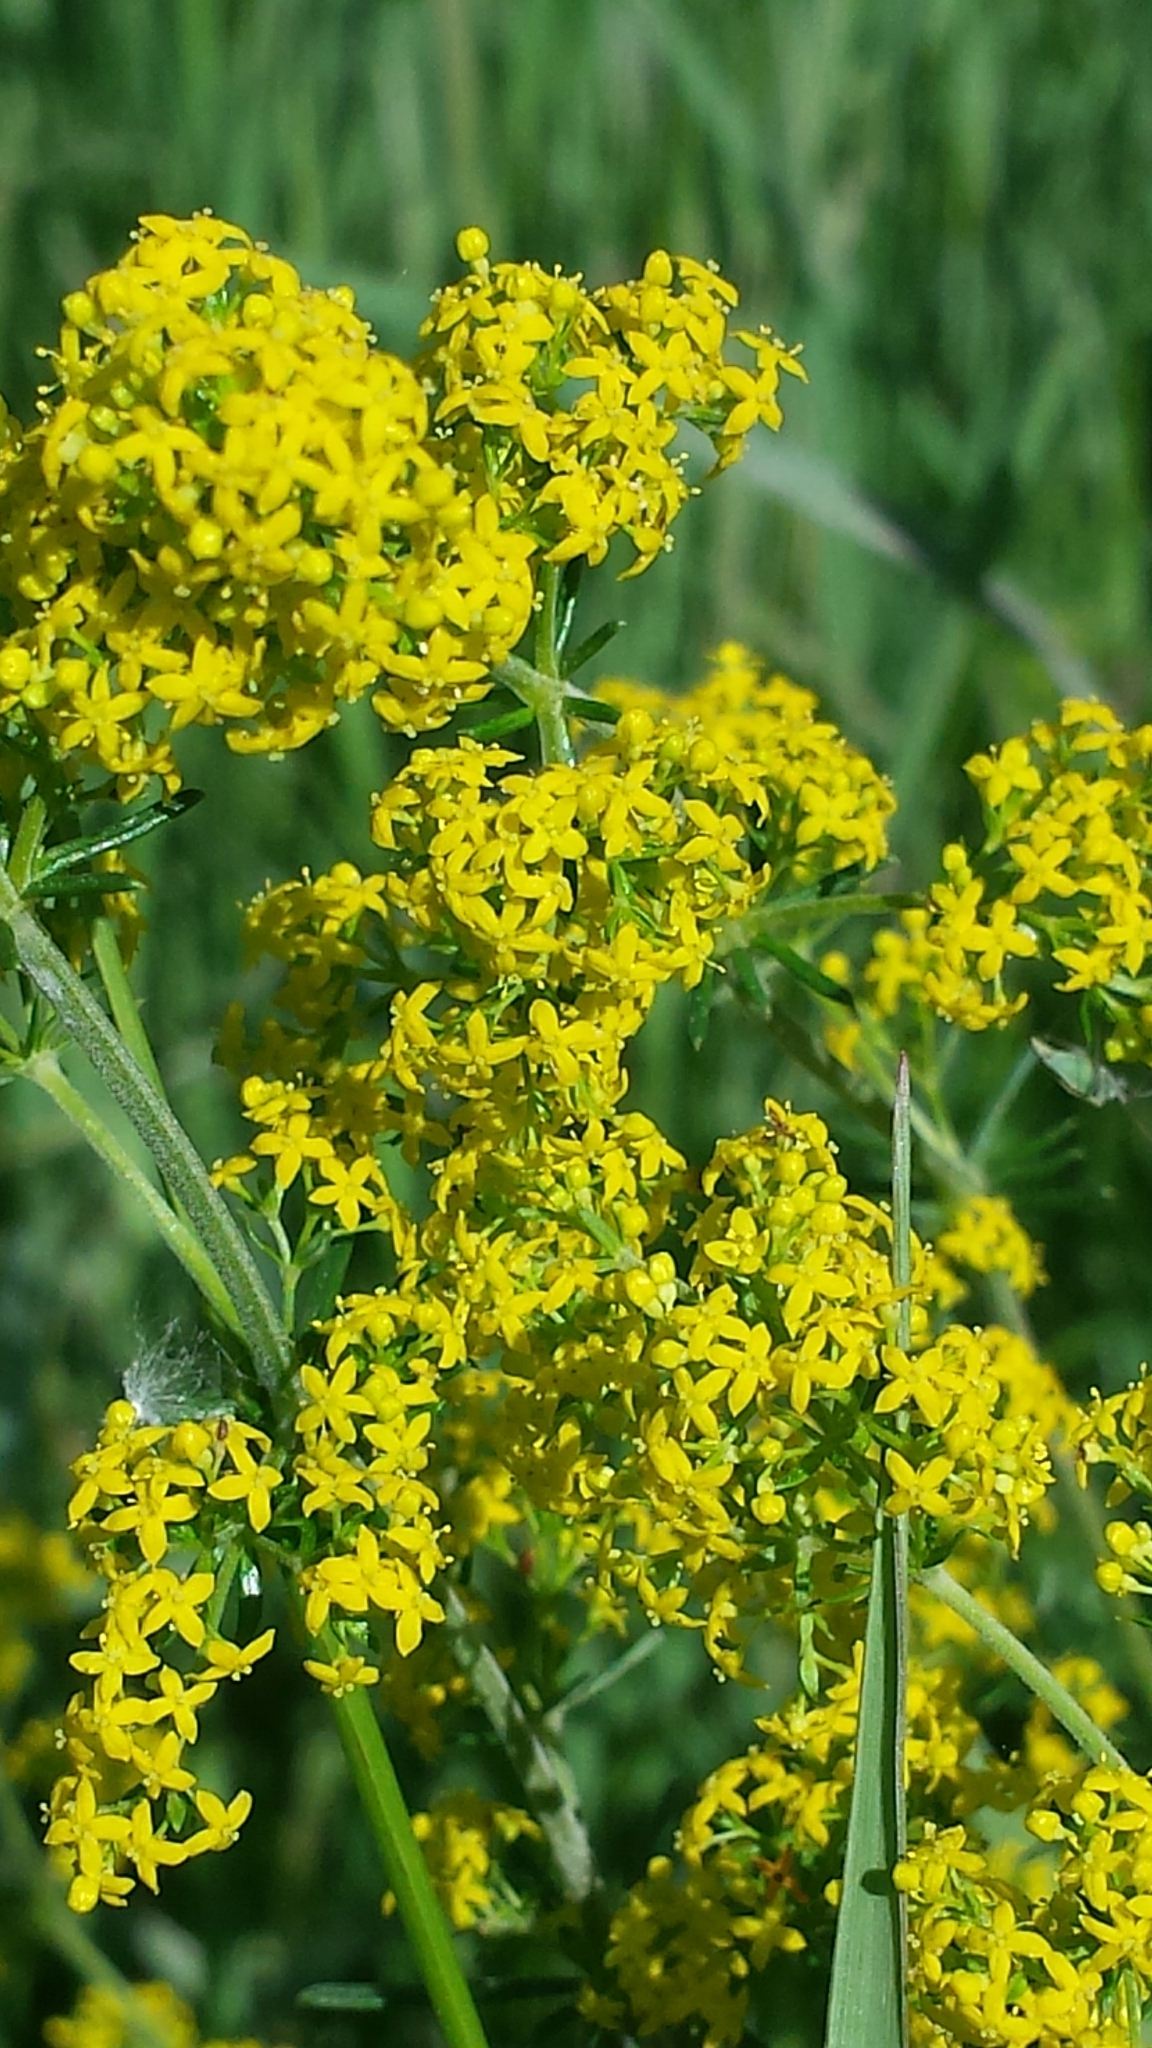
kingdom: Plantae
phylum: Tracheophyta
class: Magnoliopsida
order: Gentianales
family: Rubiaceae
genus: Galium
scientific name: Galium verum
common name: Lady's bedstraw
